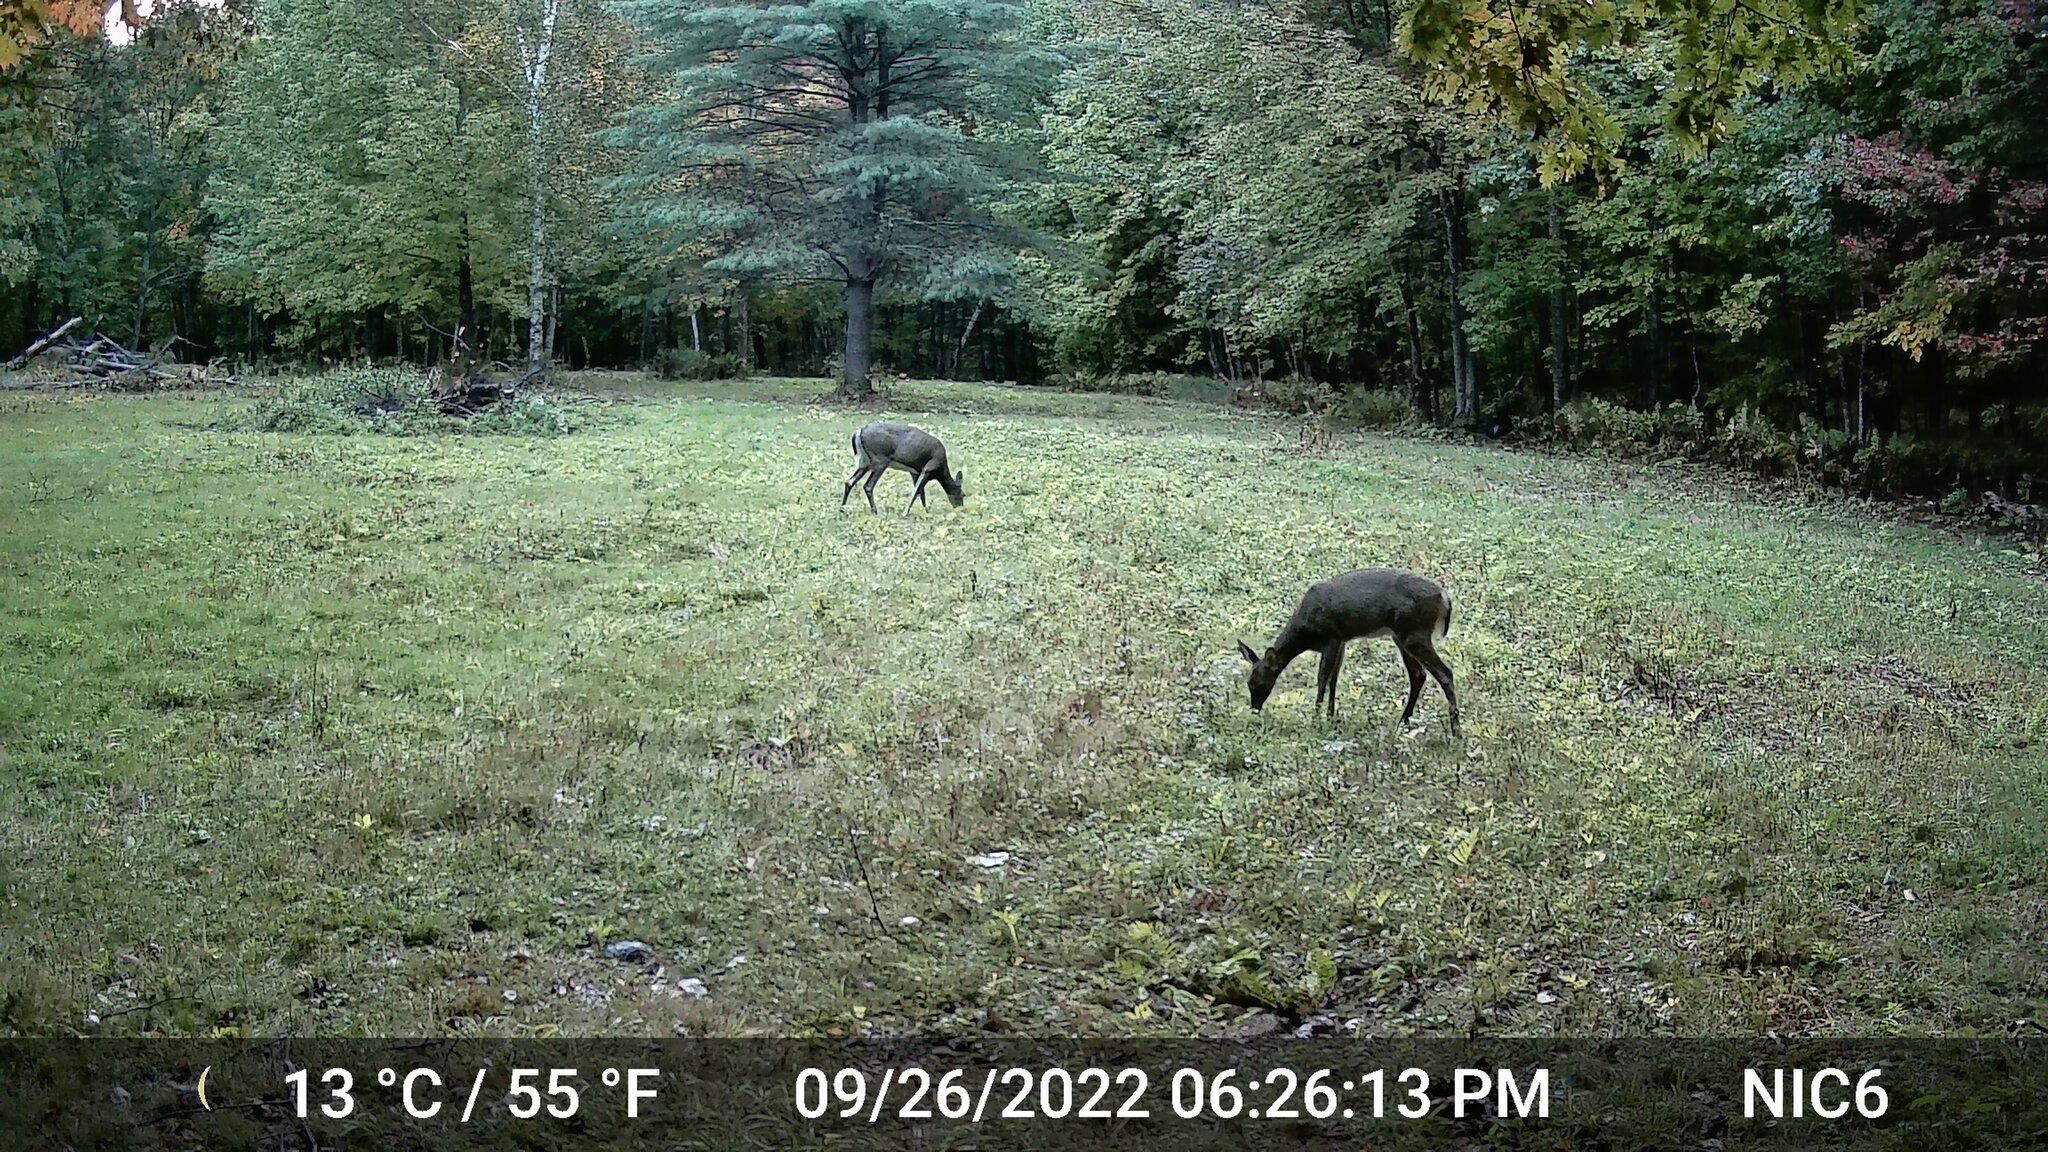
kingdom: Animalia
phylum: Chordata
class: Mammalia
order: Artiodactyla
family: Cervidae
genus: Odocoileus
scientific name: Odocoileus virginianus
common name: White-tailed deer
